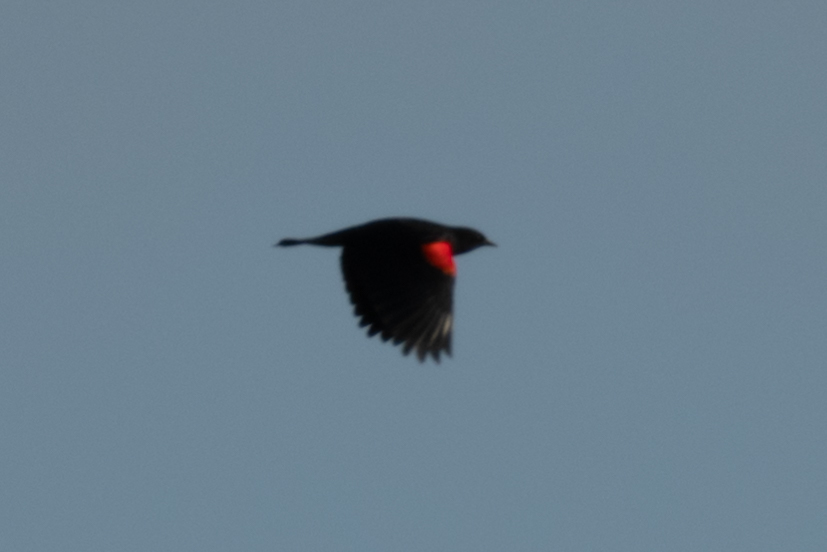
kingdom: Animalia
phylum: Chordata
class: Aves
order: Passeriformes
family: Icteridae
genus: Agelaius
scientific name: Agelaius phoeniceus
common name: Red-winged blackbird
